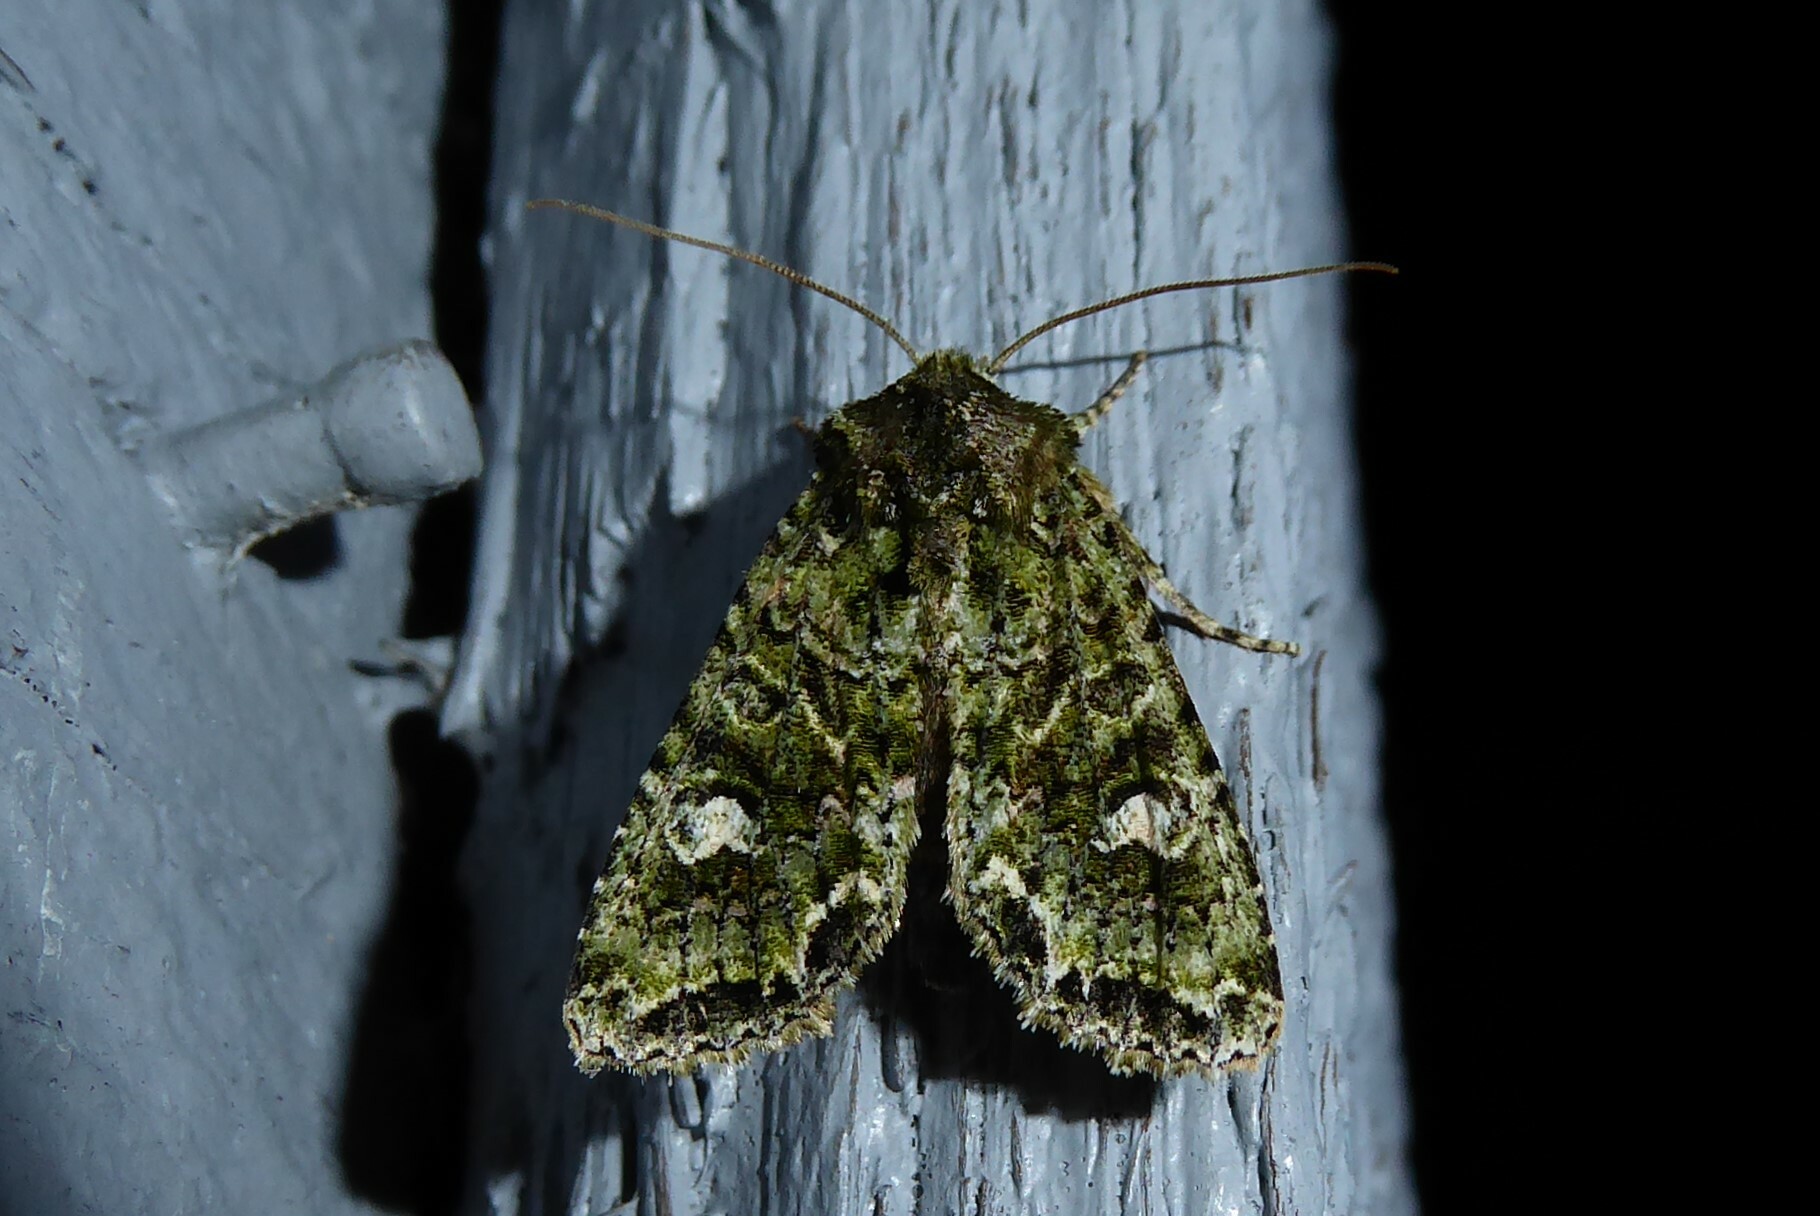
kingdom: Animalia
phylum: Arthropoda
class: Insecta
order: Lepidoptera
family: Noctuidae
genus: Ichneutica
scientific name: Ichneutica
